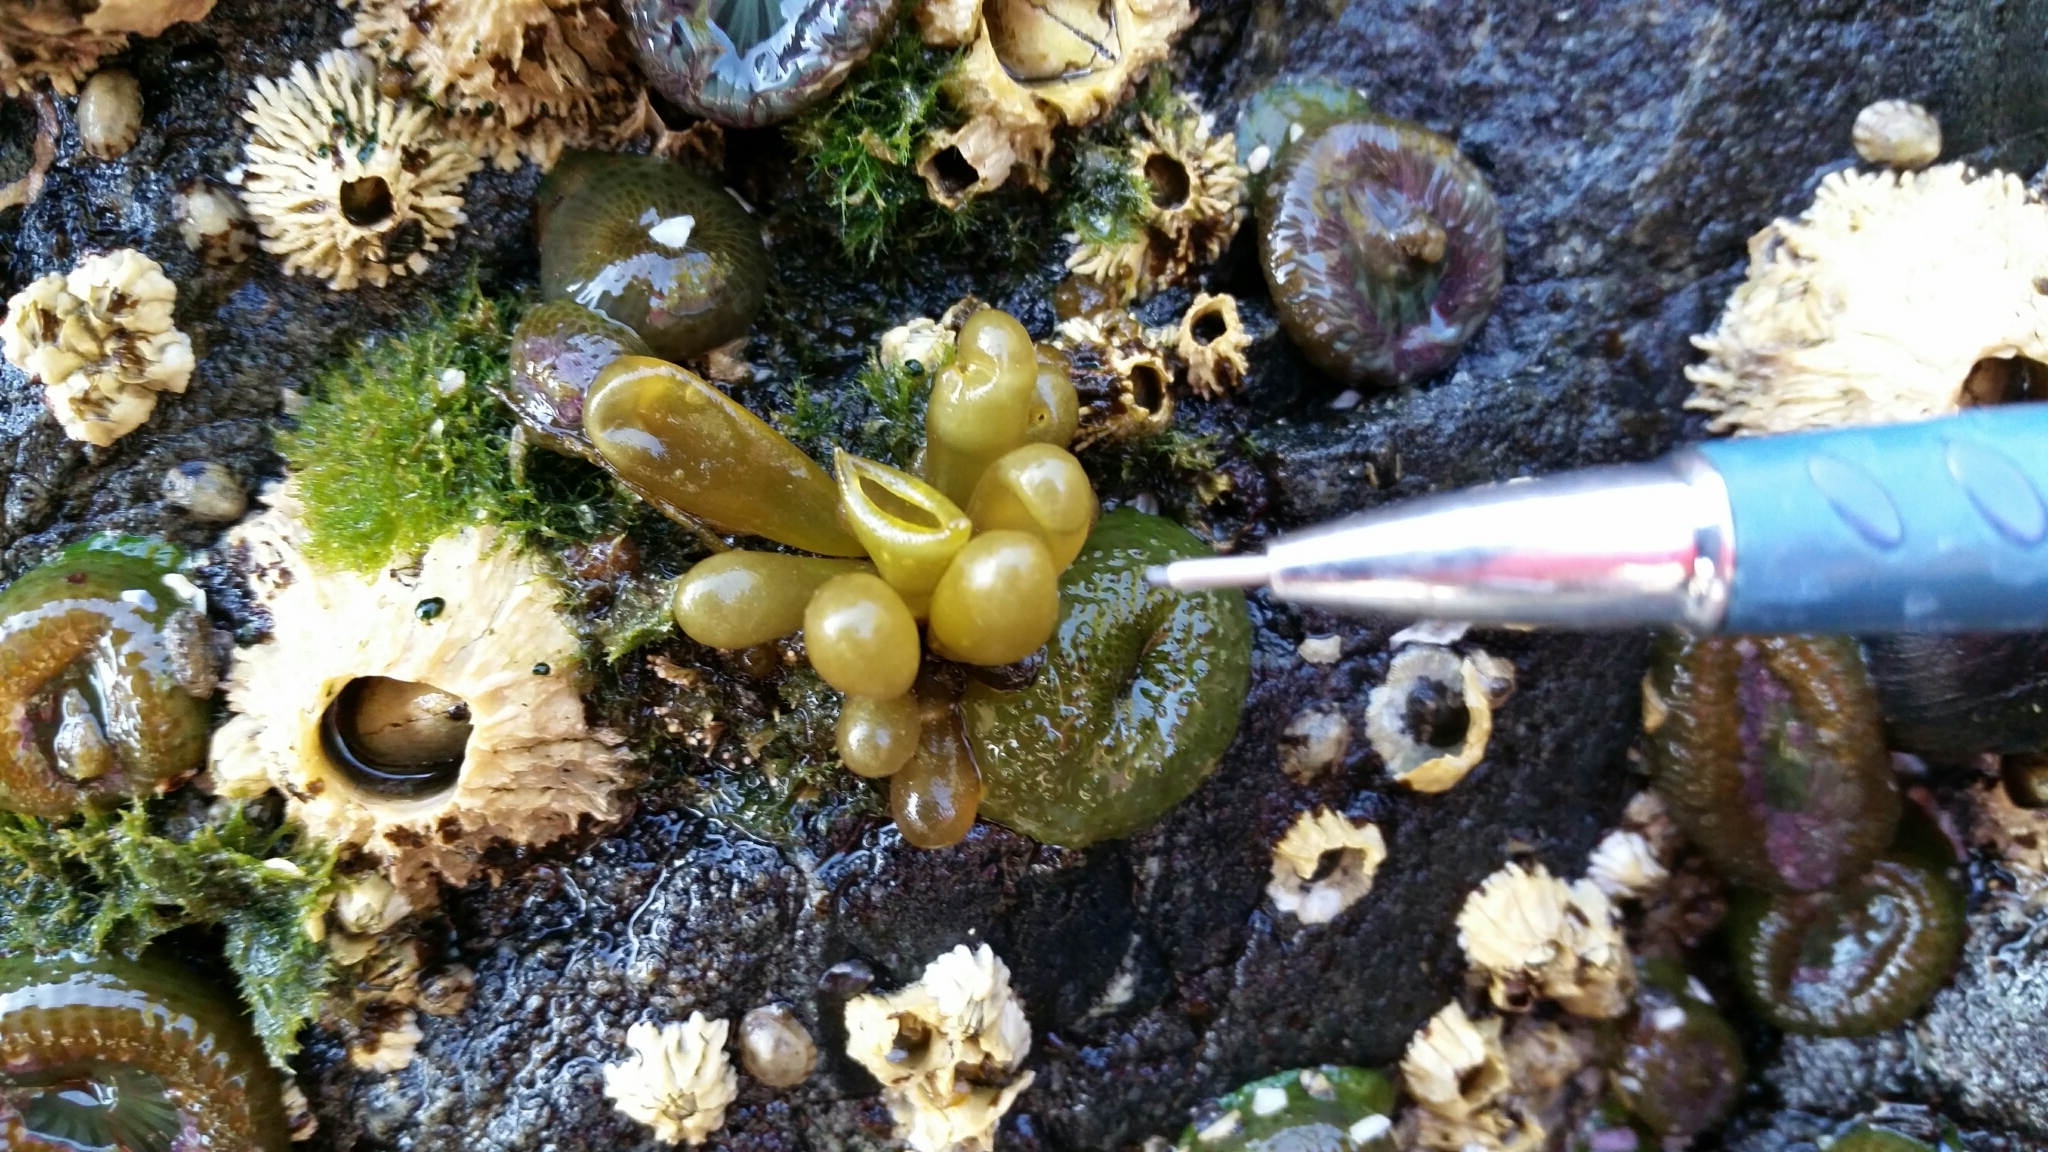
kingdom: Plantae
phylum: Rhodophyta
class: Florideophyceae
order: Palmariales
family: Palmariaceae
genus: Halosaccion
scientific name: Halosaccion glandiforme
